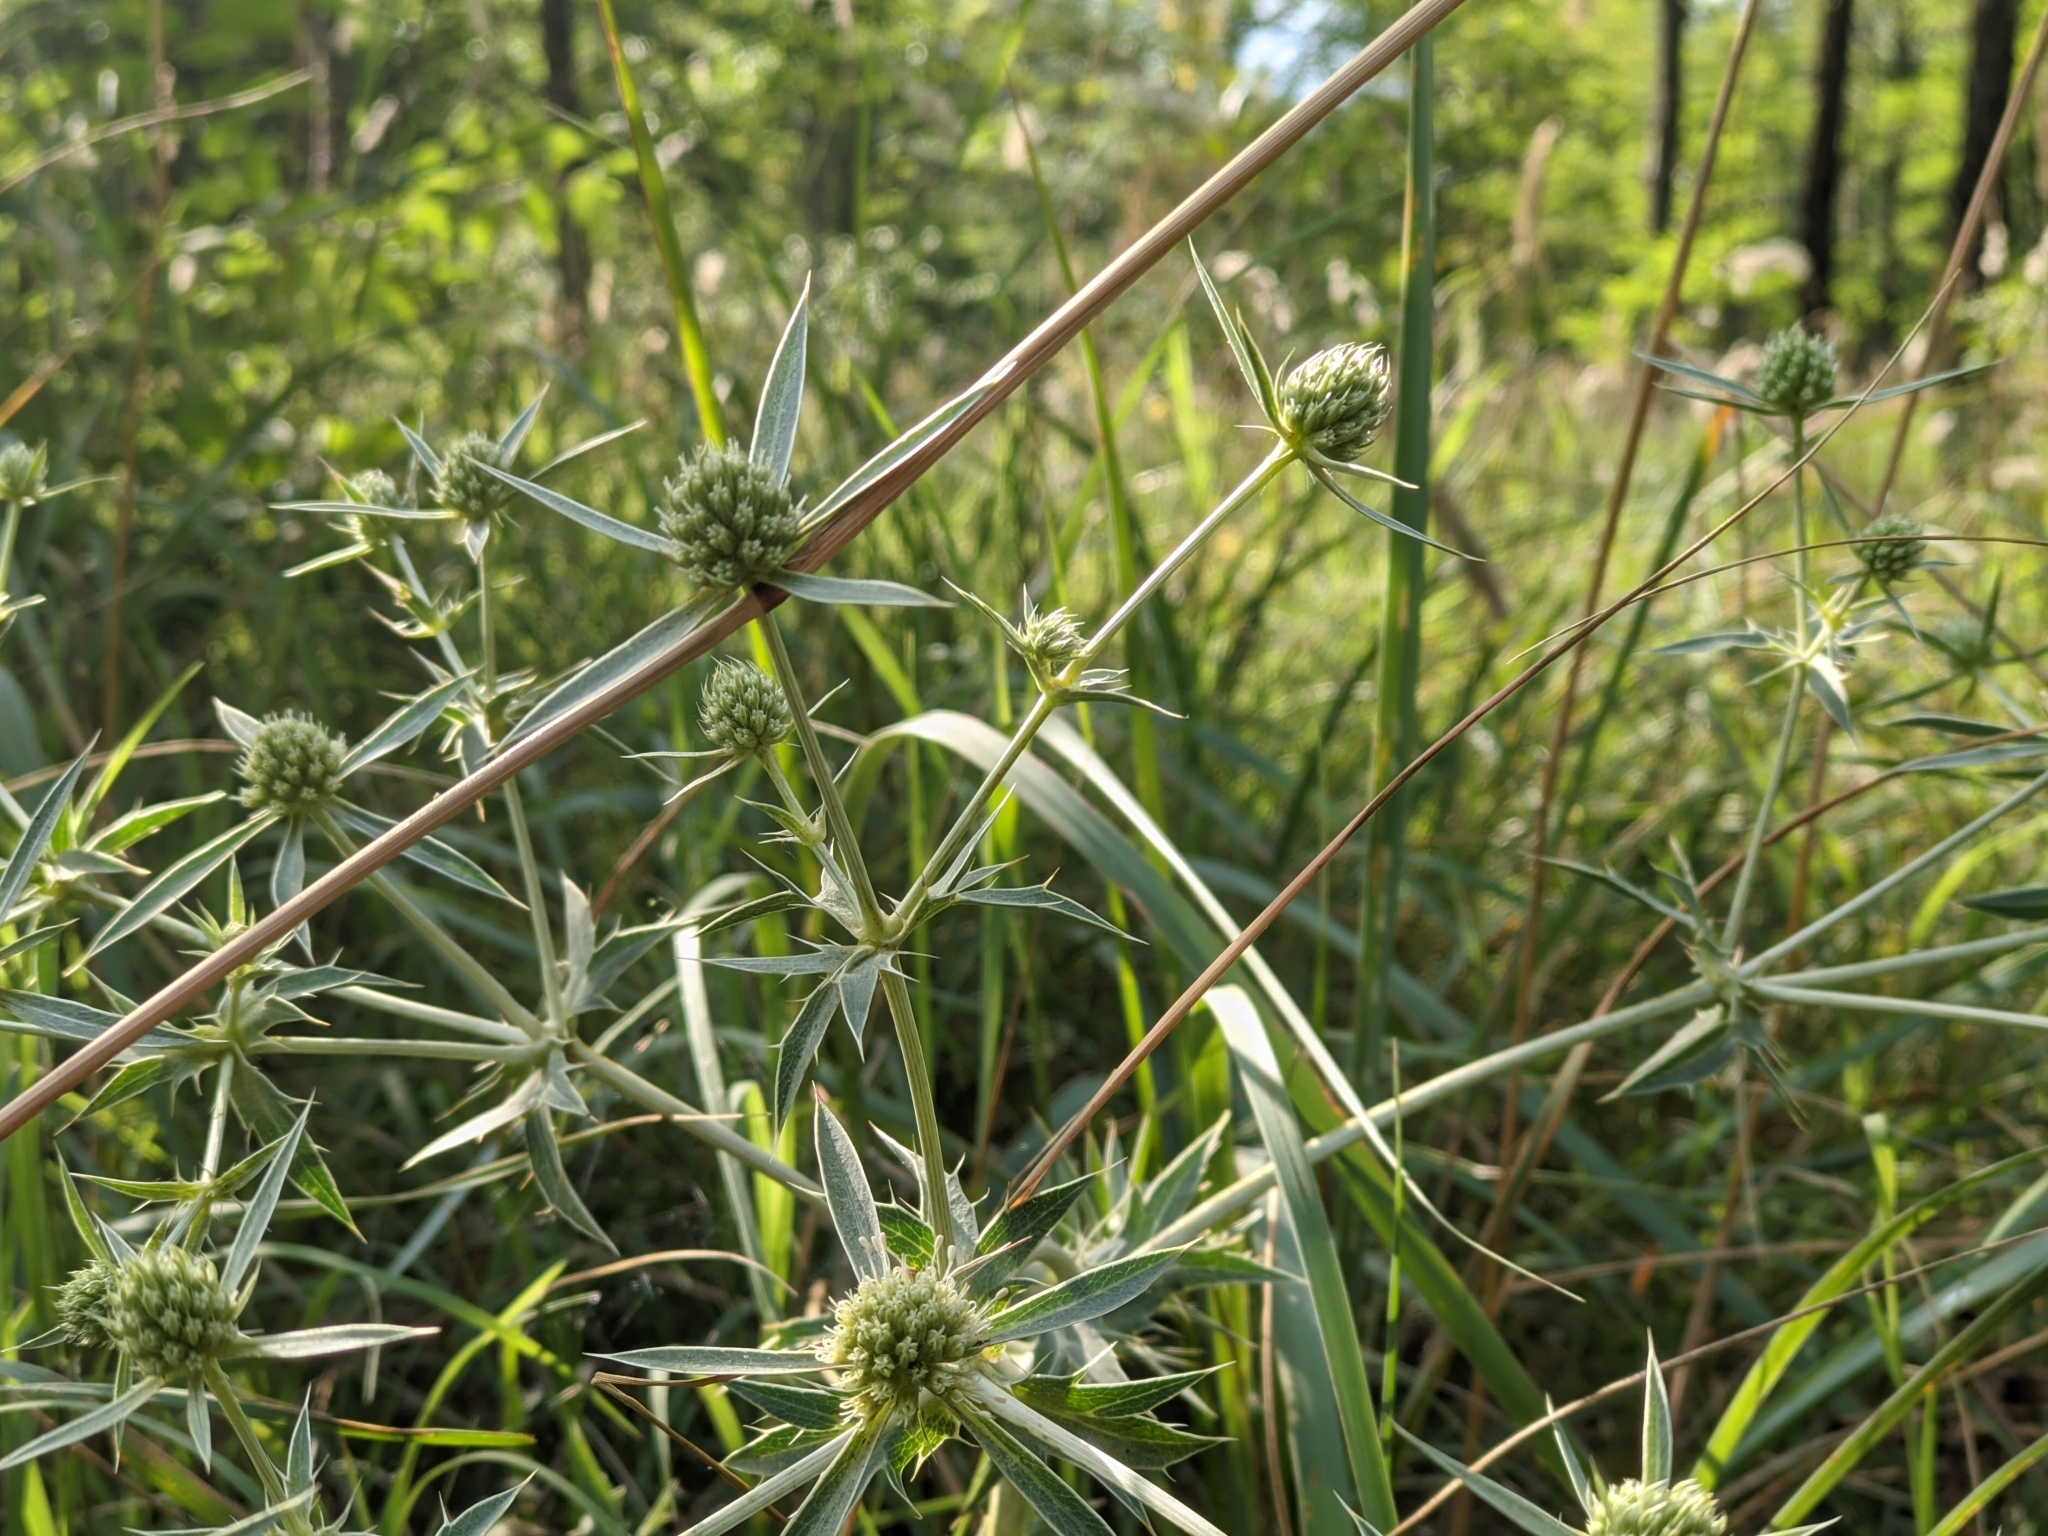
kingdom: Plantae
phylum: Tracheophyta
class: Magnoliopsida
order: Apiales
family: Apiaceae
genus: Eryngium
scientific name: Eryngium campestre
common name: Field eryngo
